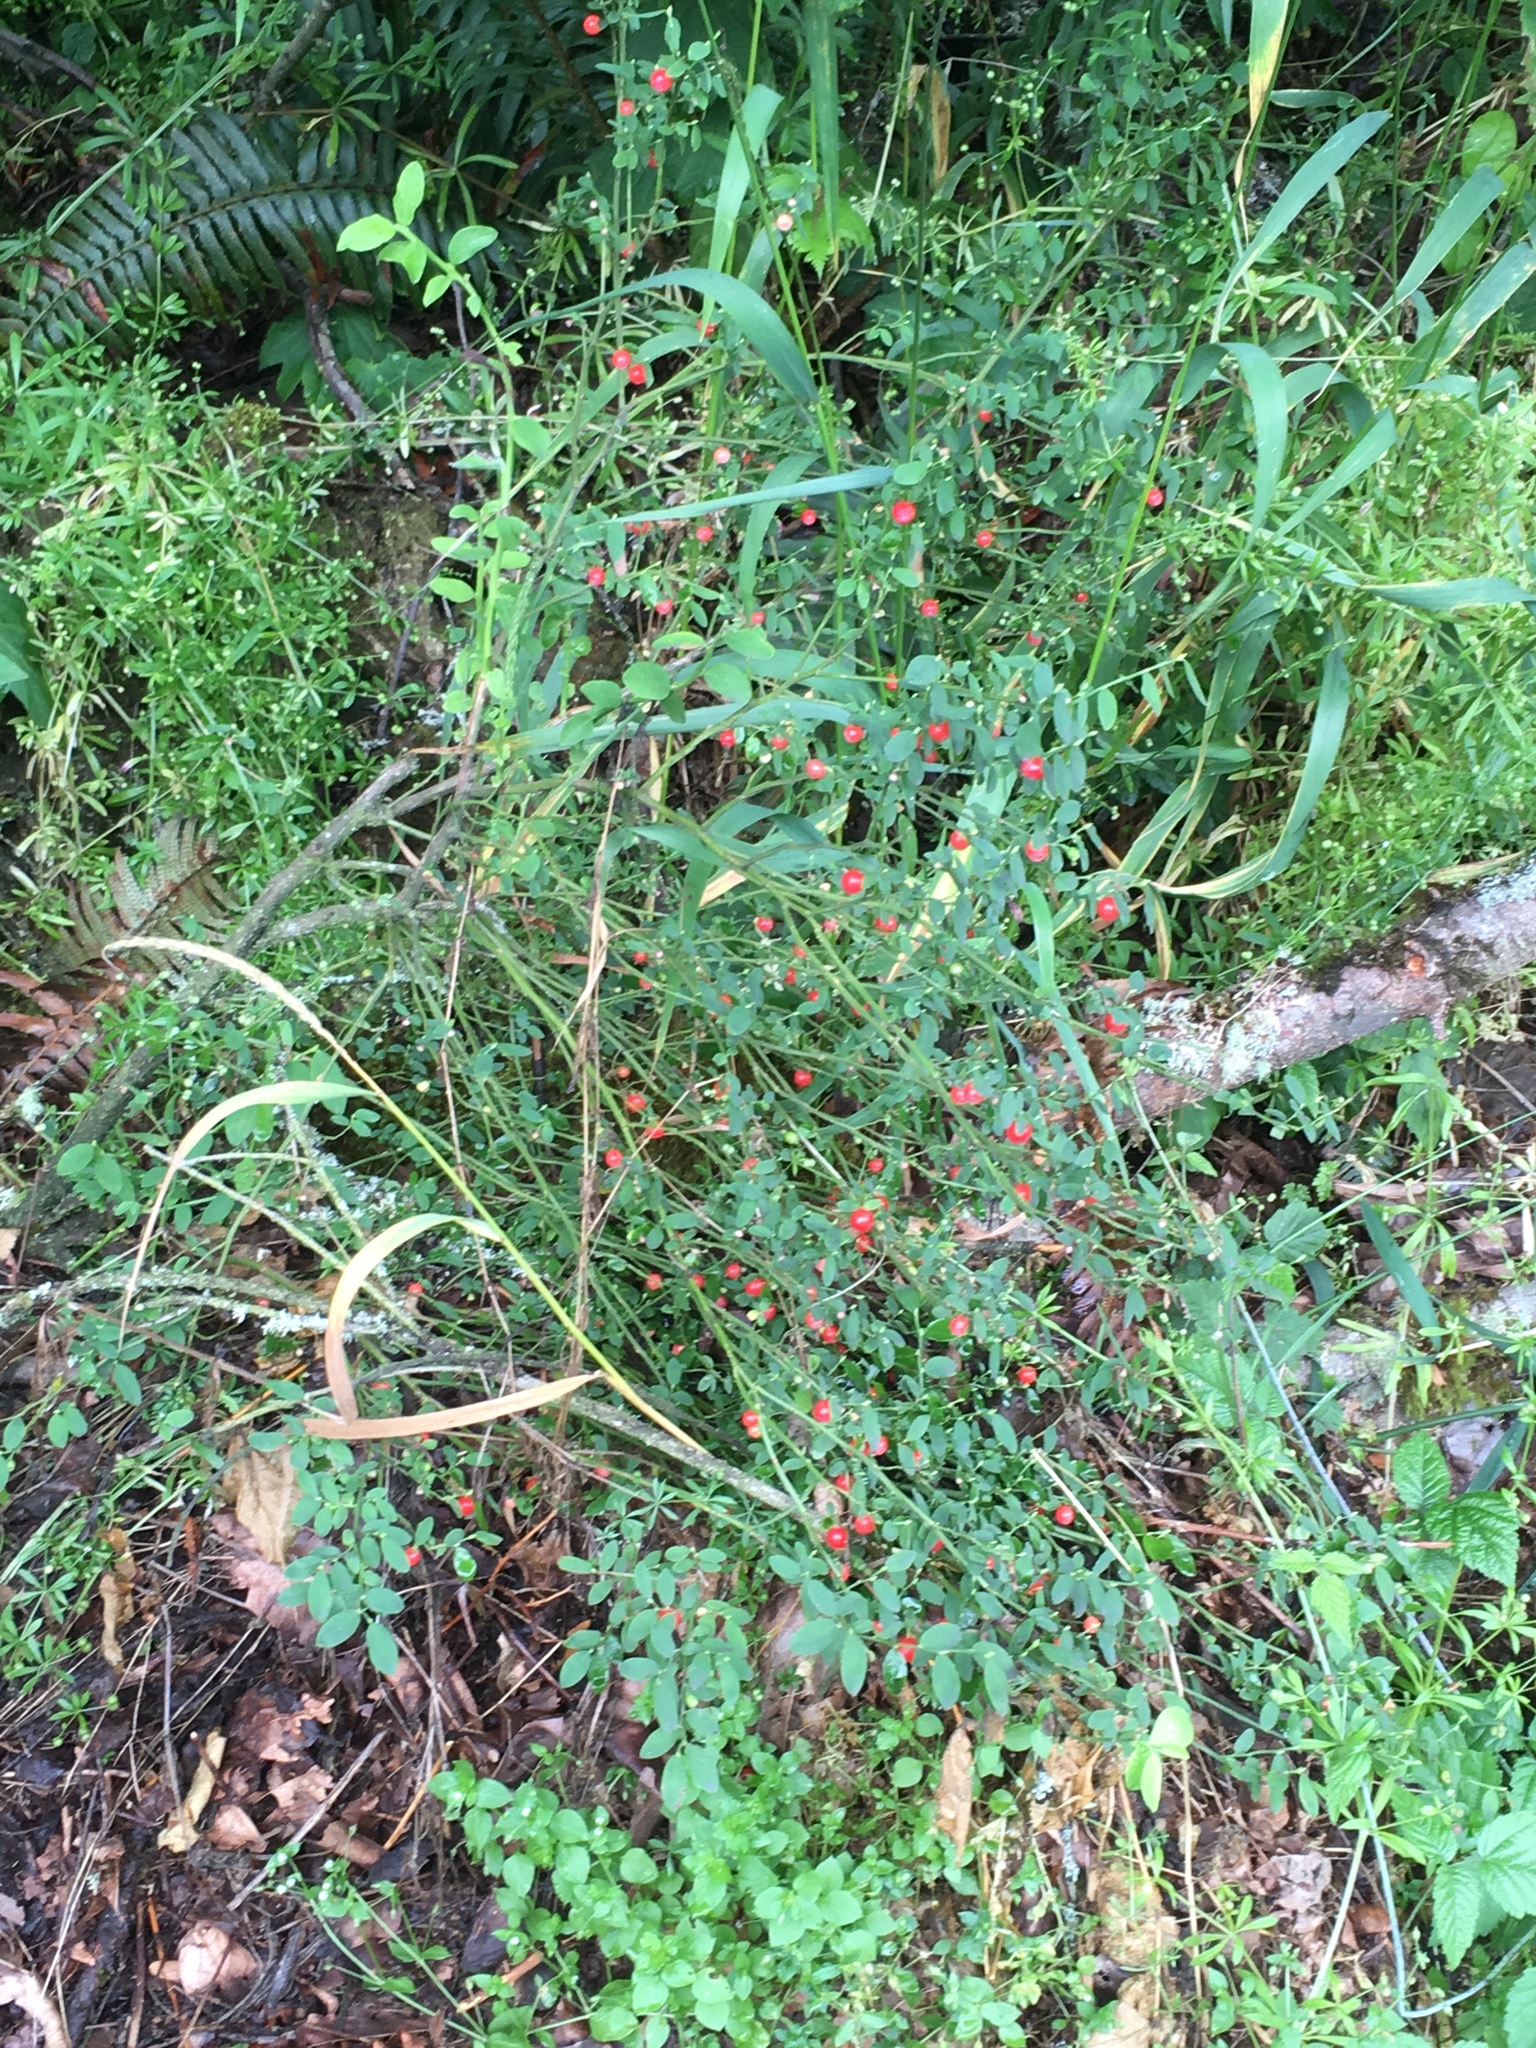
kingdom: Plantae
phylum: Tracheophyta
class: Magnoliopsida
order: Ericales
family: Ericaceae
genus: Vaccinium
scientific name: Vaccinium parvifolium
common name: Red-huckleberry
